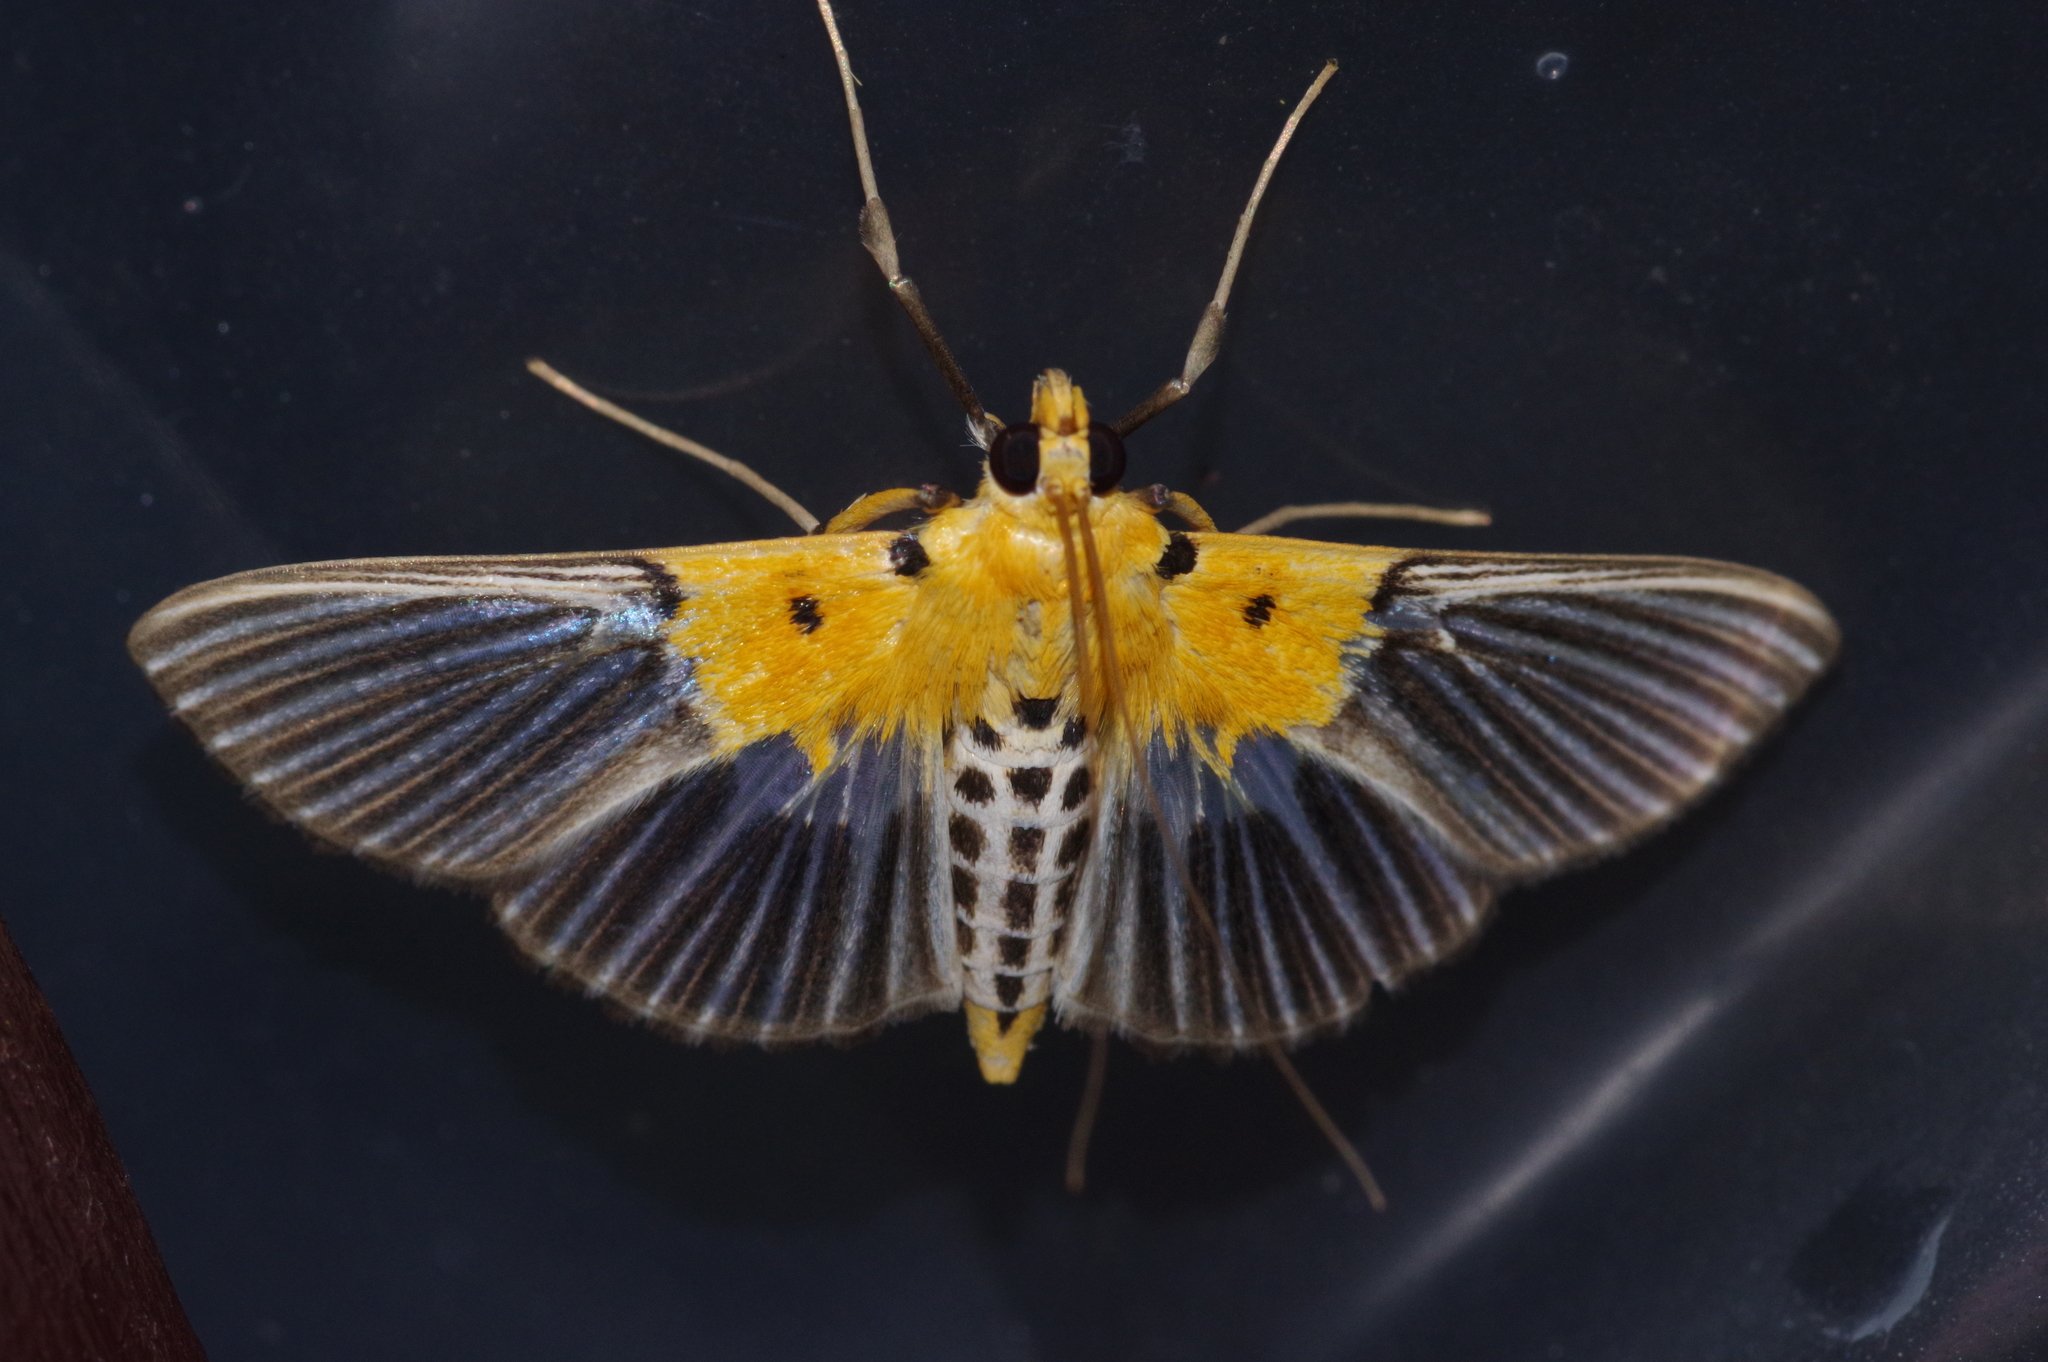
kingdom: Animalia
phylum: Arthropoda
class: Insecta
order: Lepidoptera
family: Crambidae
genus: Nevrina
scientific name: Nevrina procopia
